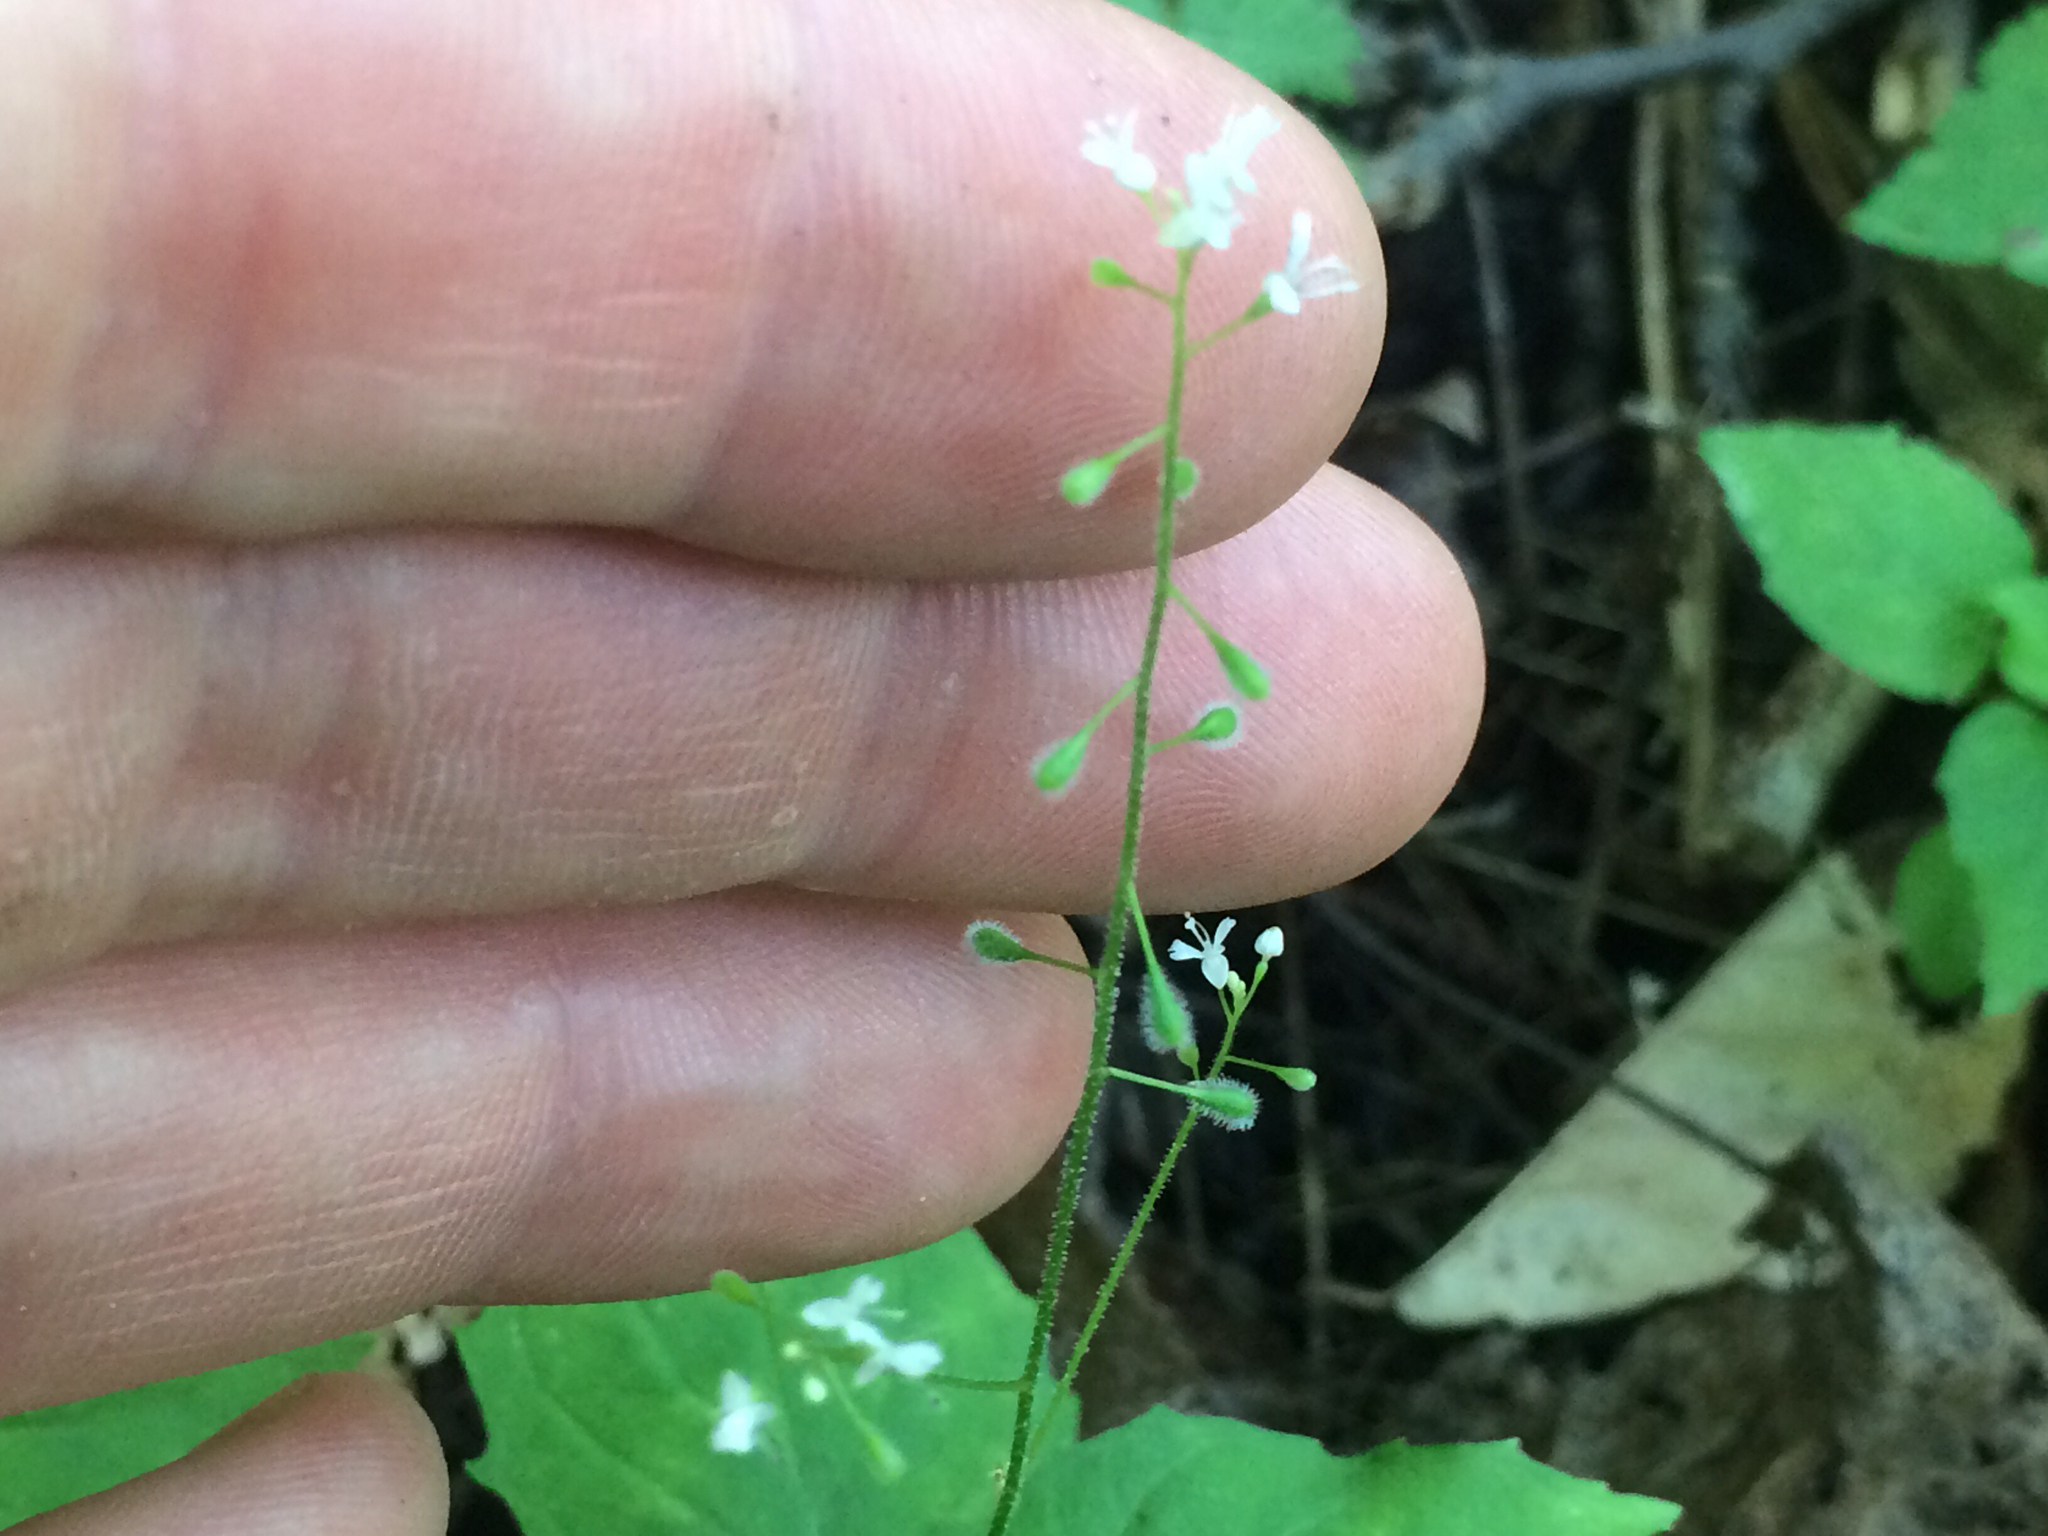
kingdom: Plantae
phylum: Tracheophyta
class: Magnoliopsida
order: Myrtales
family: Onagraceae
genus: Circaea
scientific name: Circaea alpina
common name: Alpine enchanter's-nightshade
